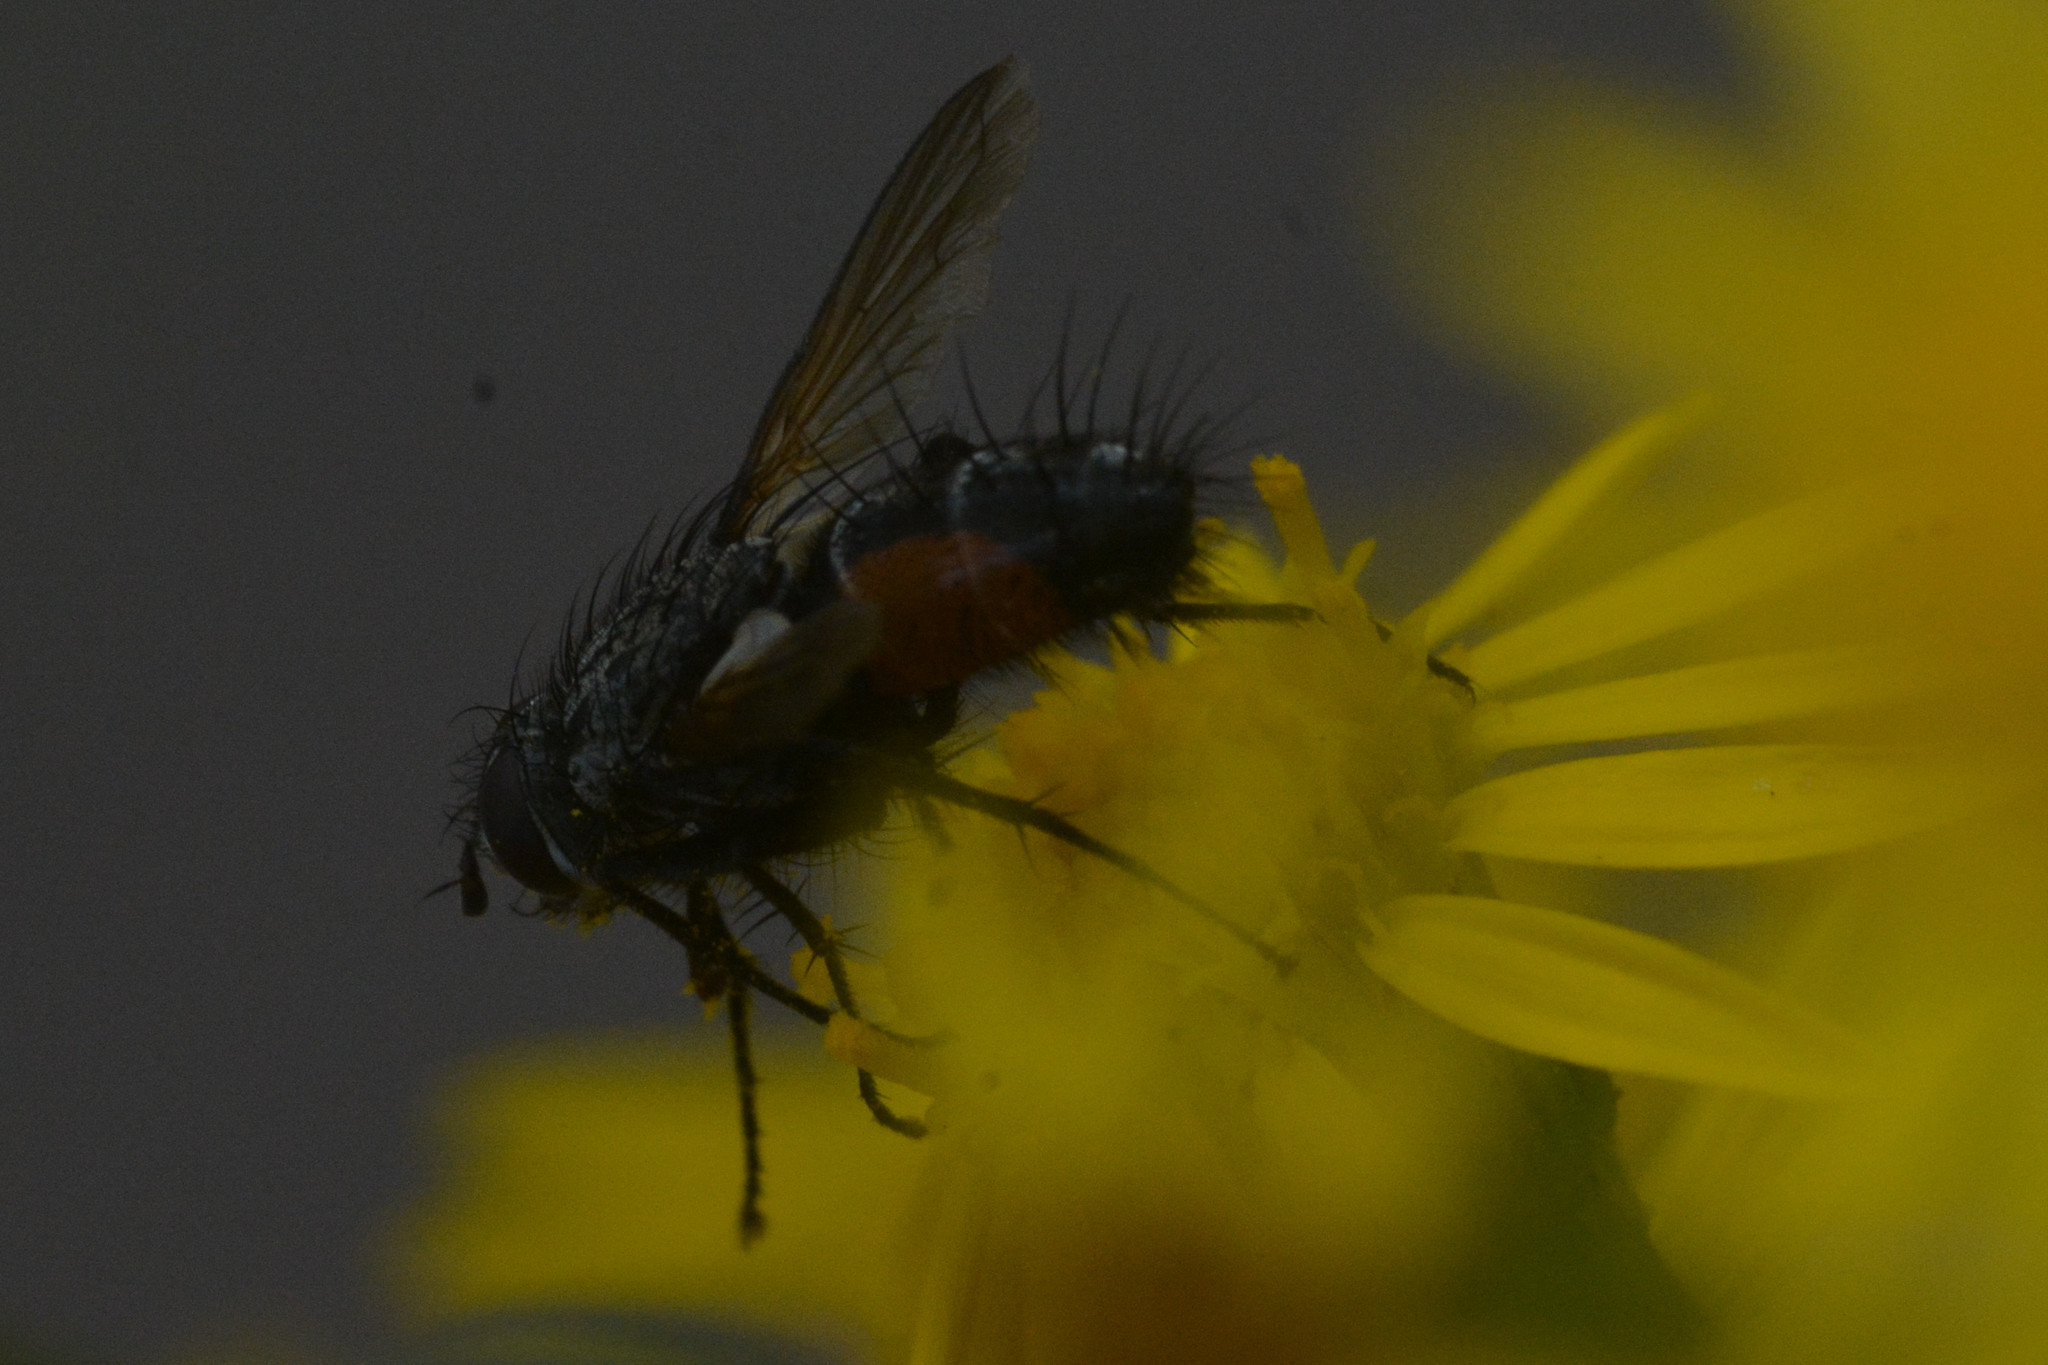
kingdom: Animalia
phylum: Arthropoda
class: Insecta
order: Diptera
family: Tachinidae
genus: Eriothrix
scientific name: Eriothrix rufomaculatus
